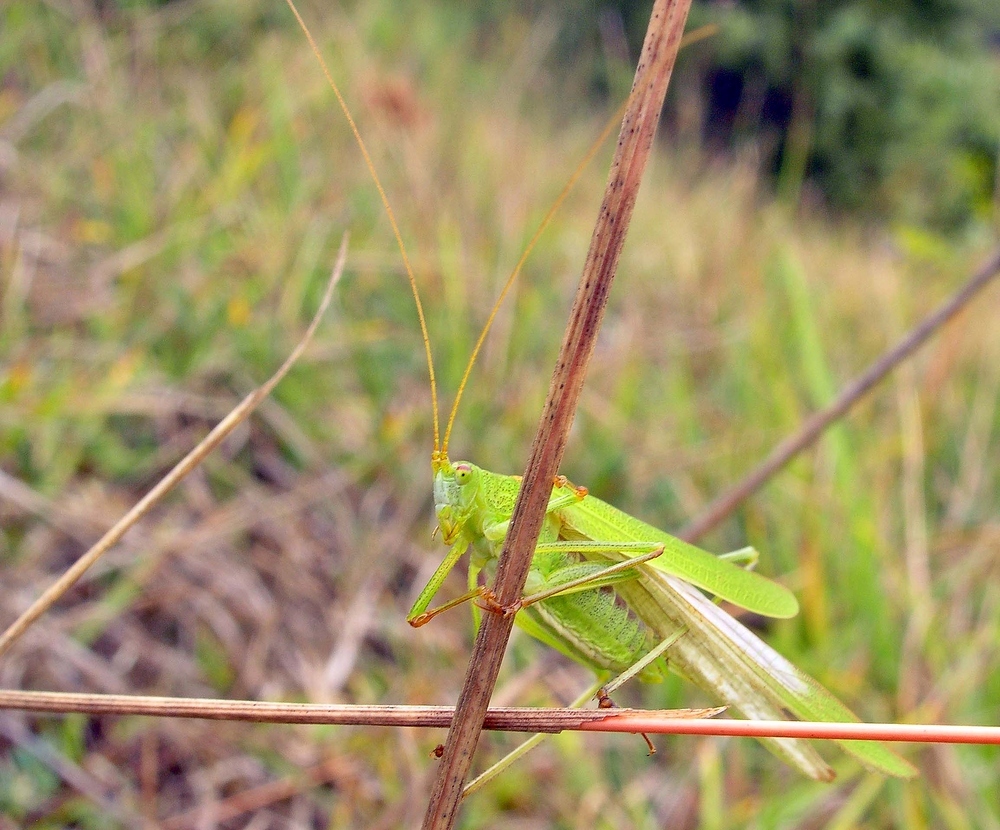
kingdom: Animalia
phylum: Arthropoda
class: Insecta
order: Orthoptera
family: Tettigoniidae
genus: Phaneroptera
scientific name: Phaneroptera falcata
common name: Sickle-bearing bush-cricket
